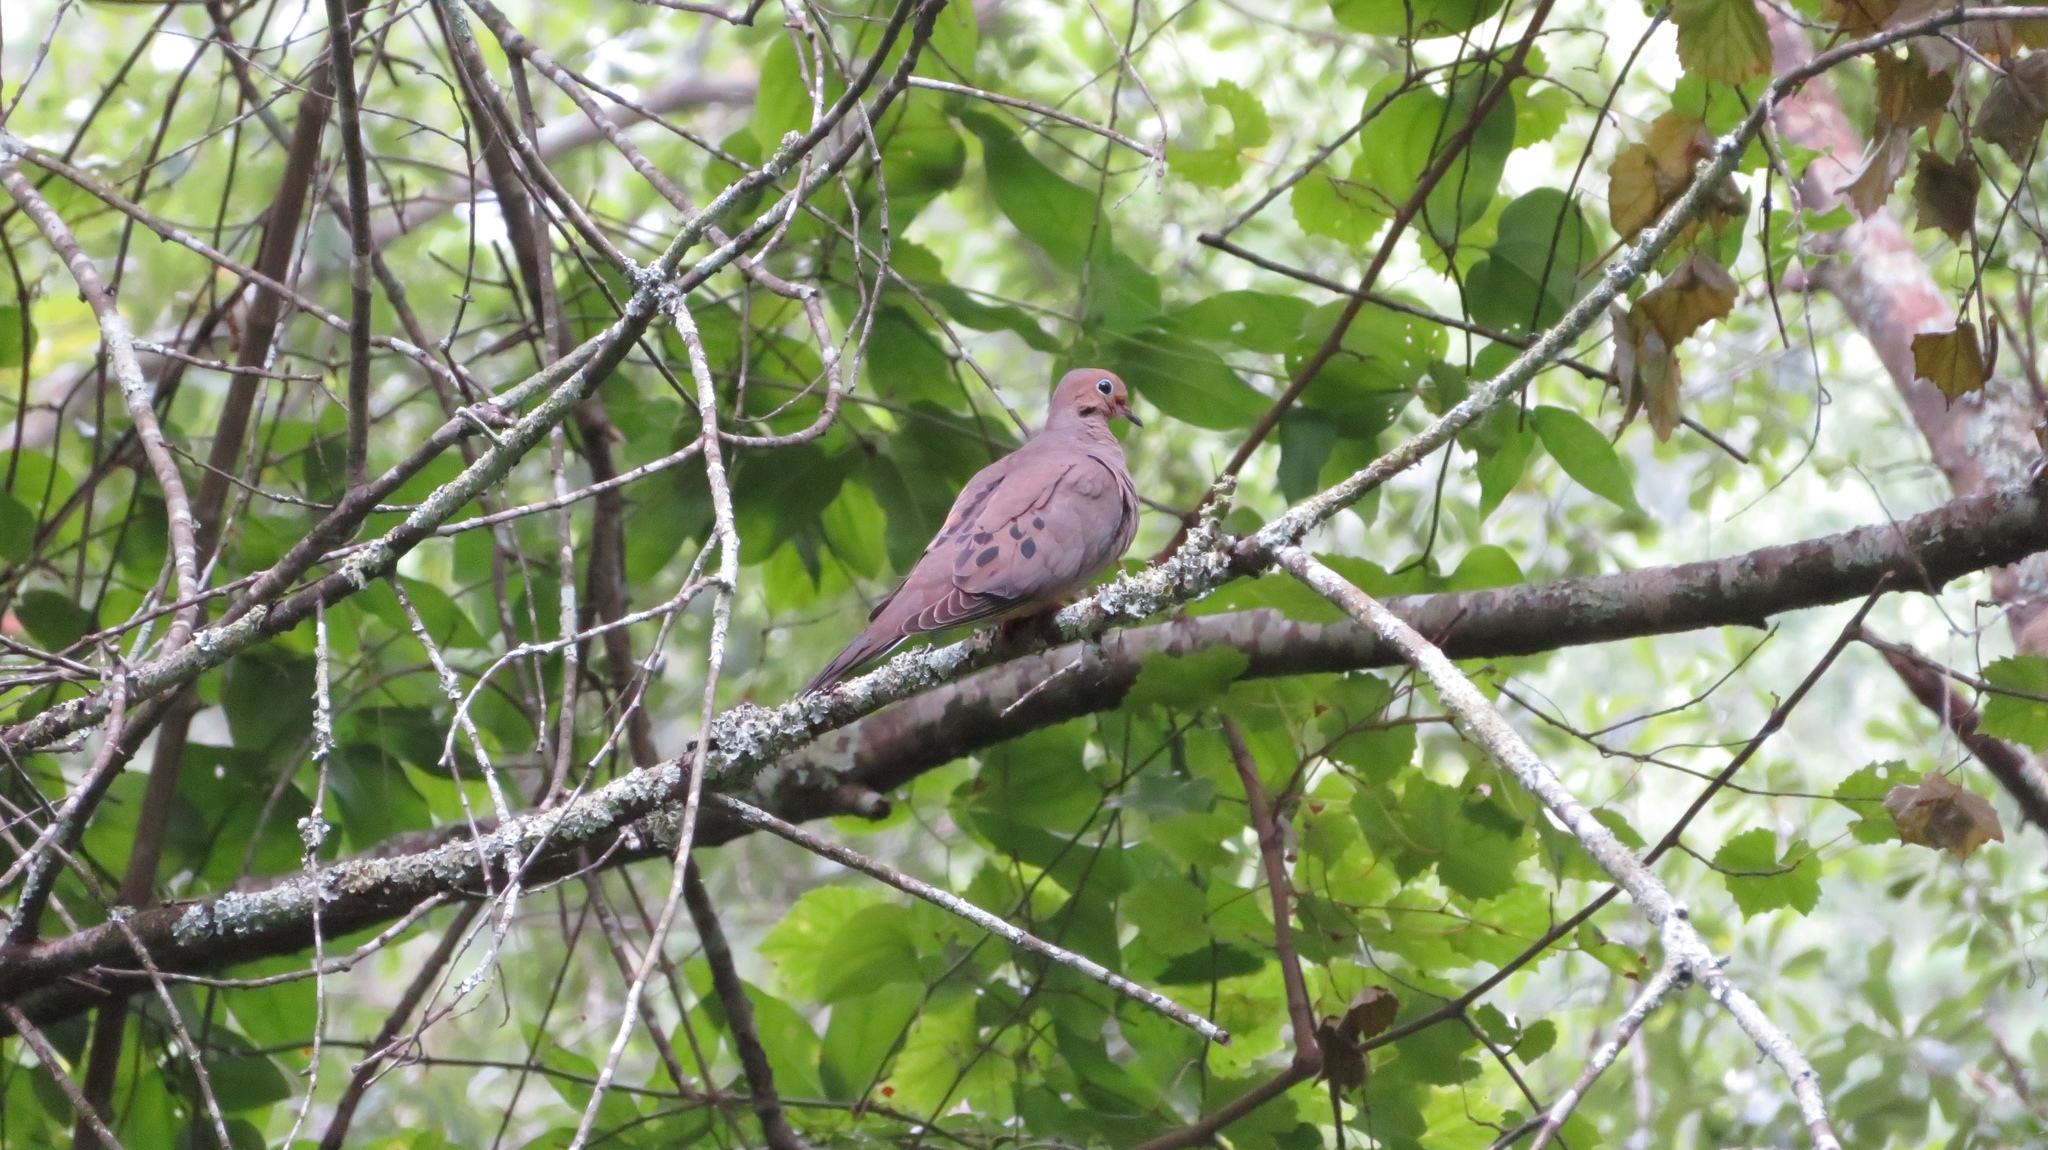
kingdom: Animalia
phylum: Chordata
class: Aves
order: Columbiformes
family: Columbidae
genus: Zenaida
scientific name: Zenaida macroura
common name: Mourning dove
